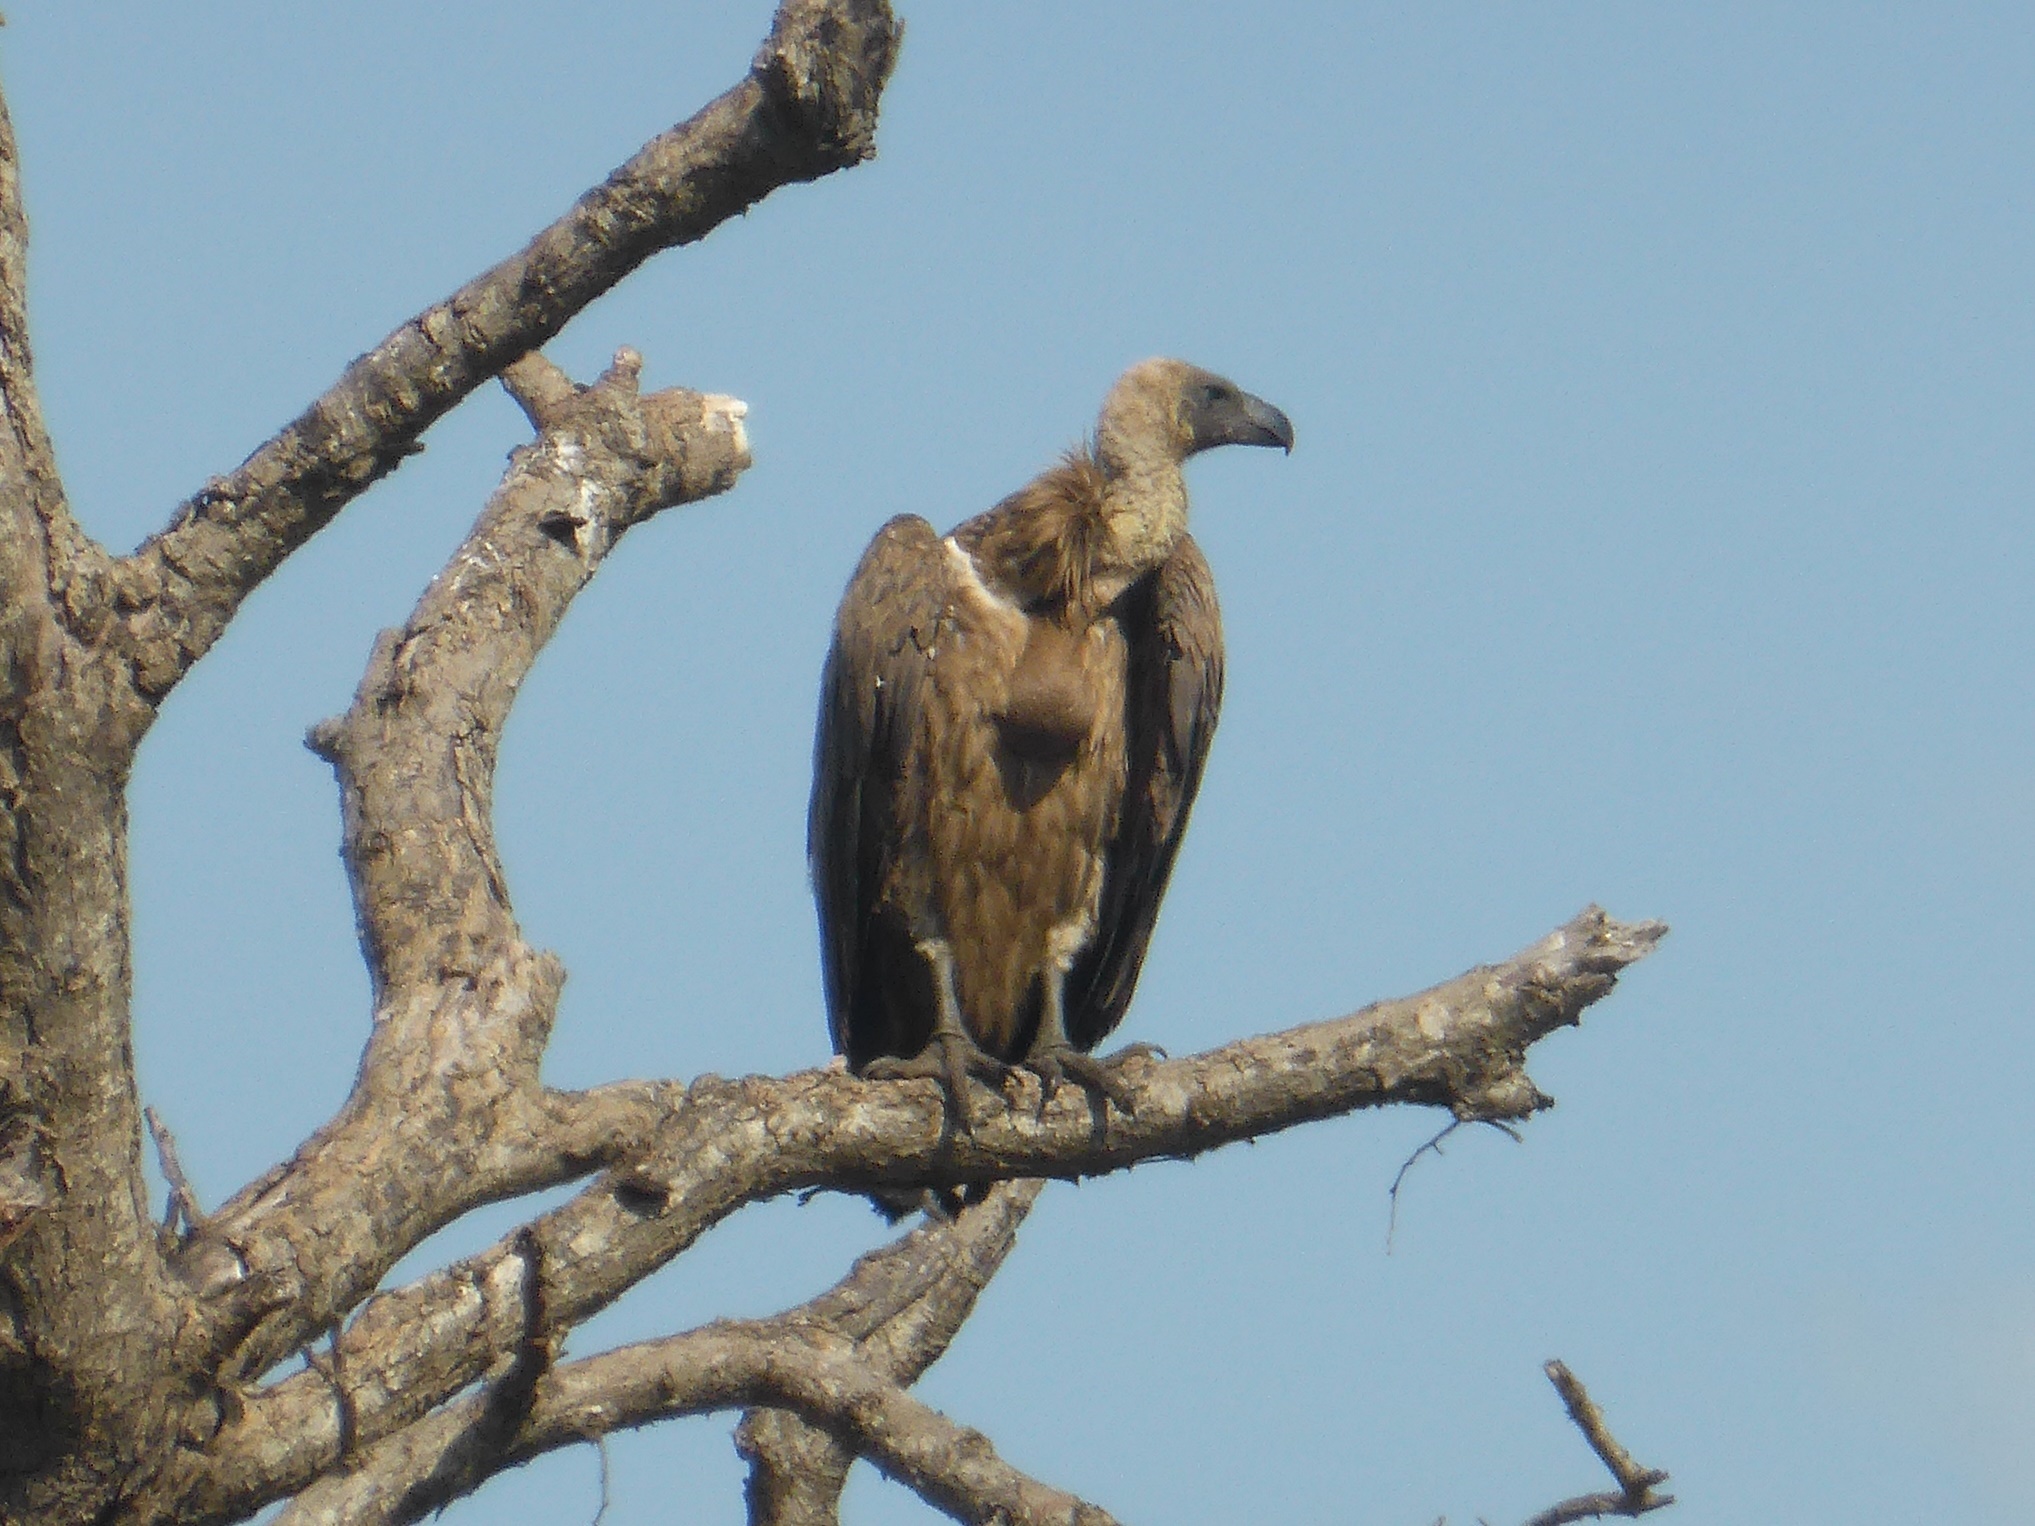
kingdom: Animalia
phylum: Chordata
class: Aves
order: Accipitriformes
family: Accipitridae
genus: Gyps
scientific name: Gyps africanus
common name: White-backed vulture
